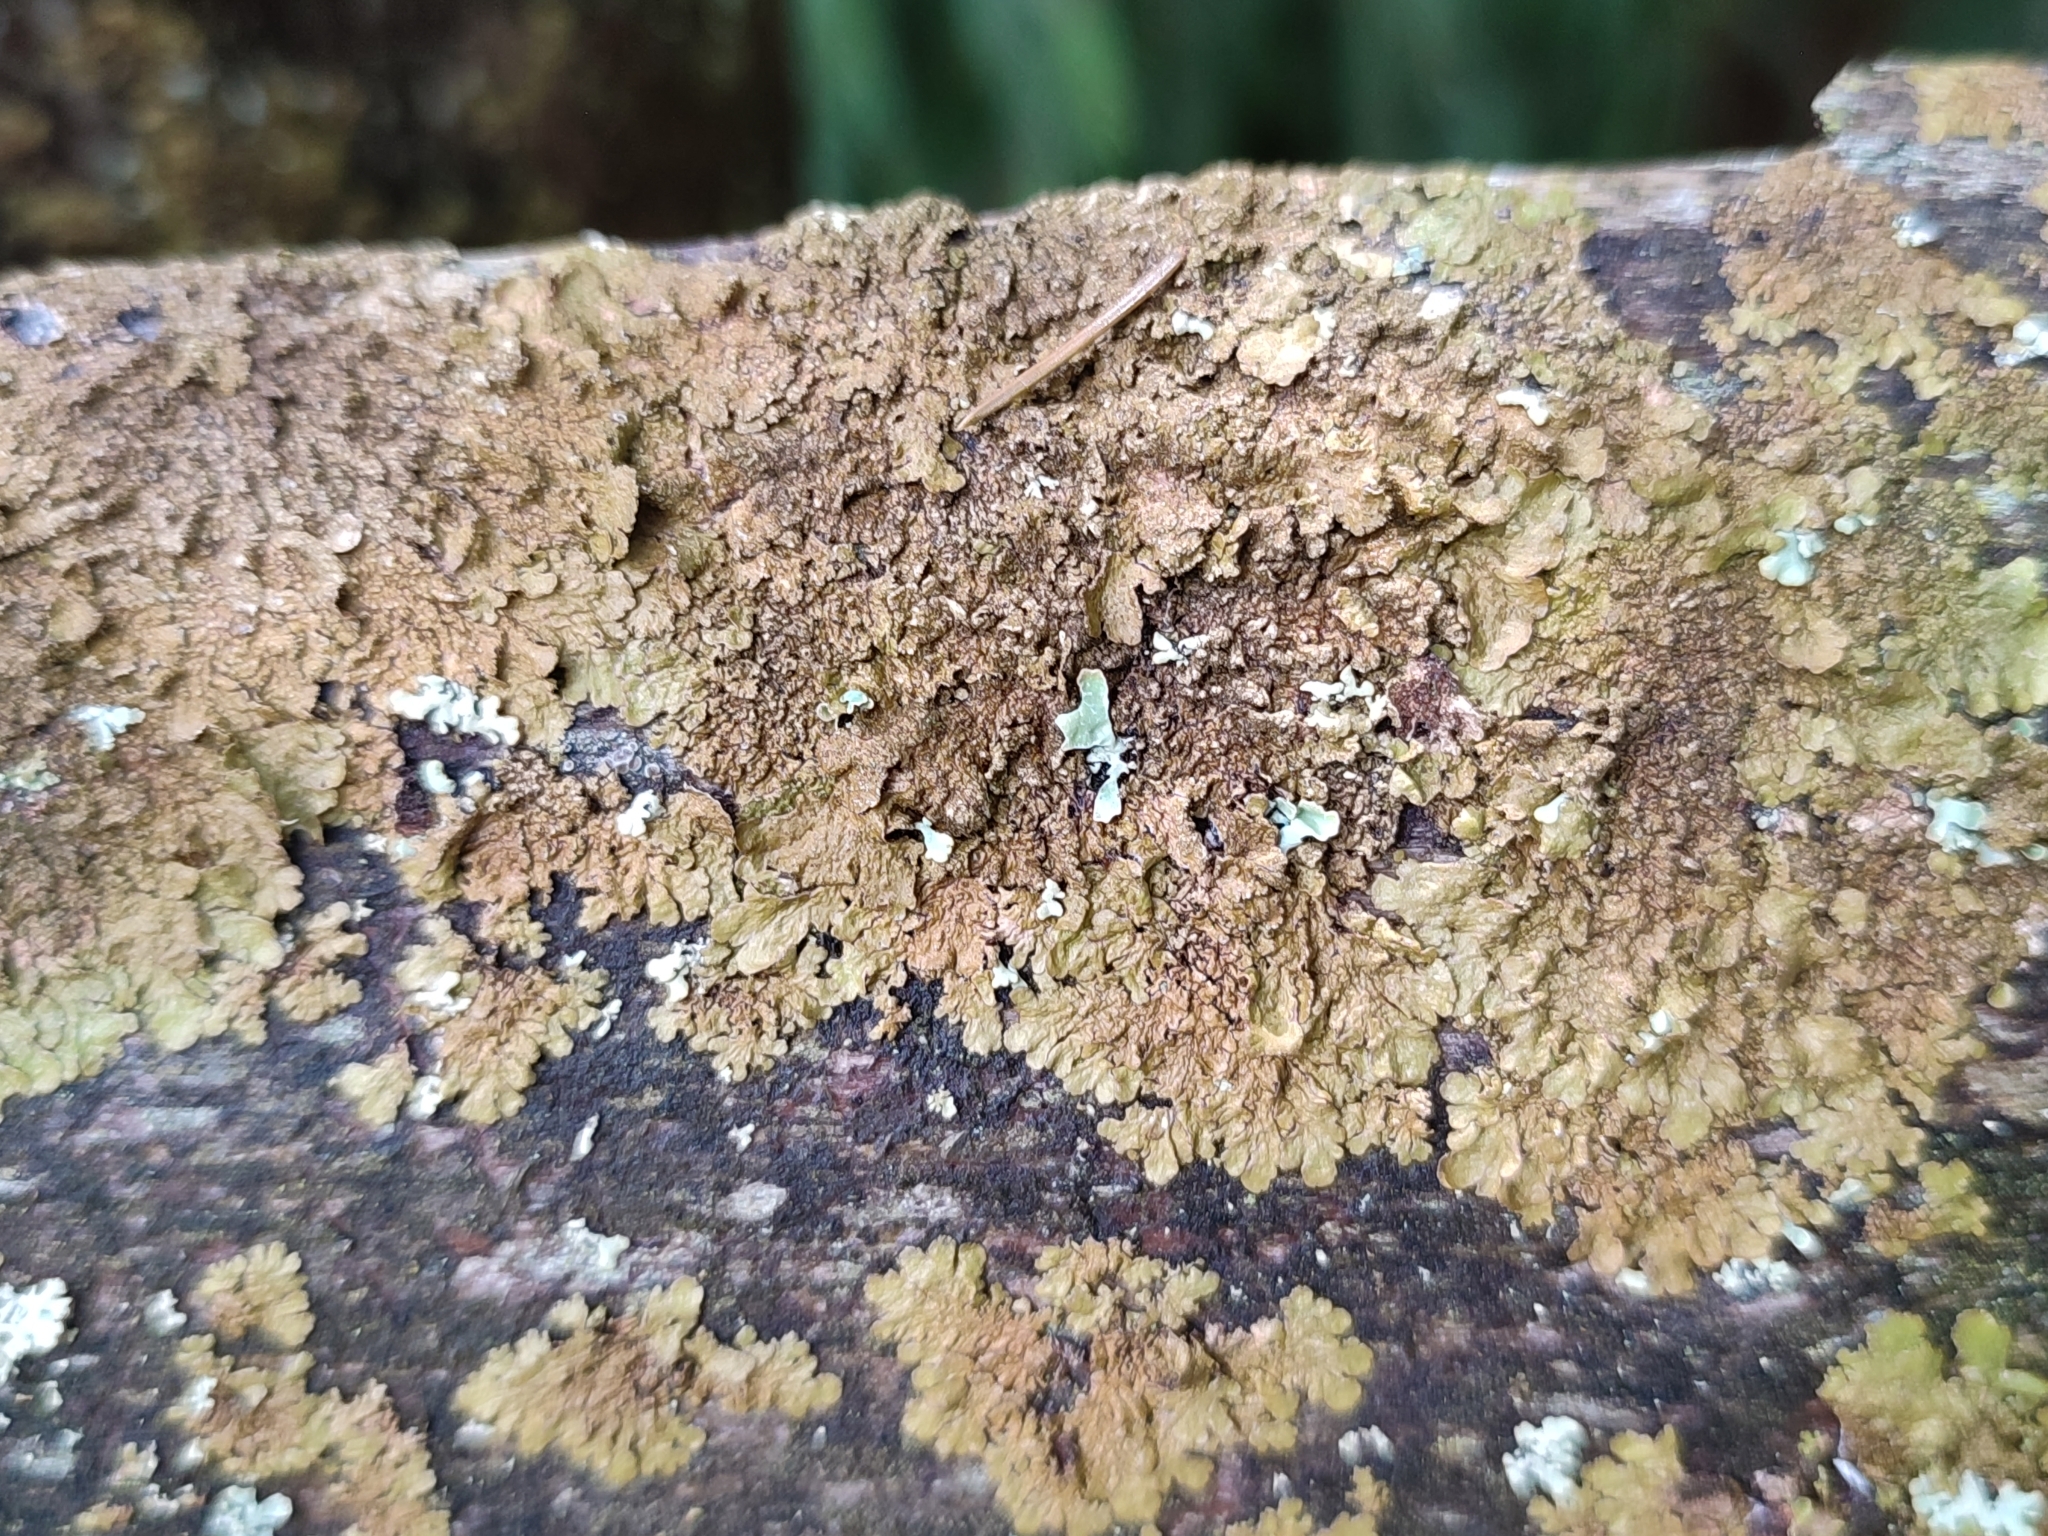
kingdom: Fungi
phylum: Ascomycota
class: Lecanoromycetes
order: Lecanorales
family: Parmeliaceae
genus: Melanelixia
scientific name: Melanelixia glabratula
